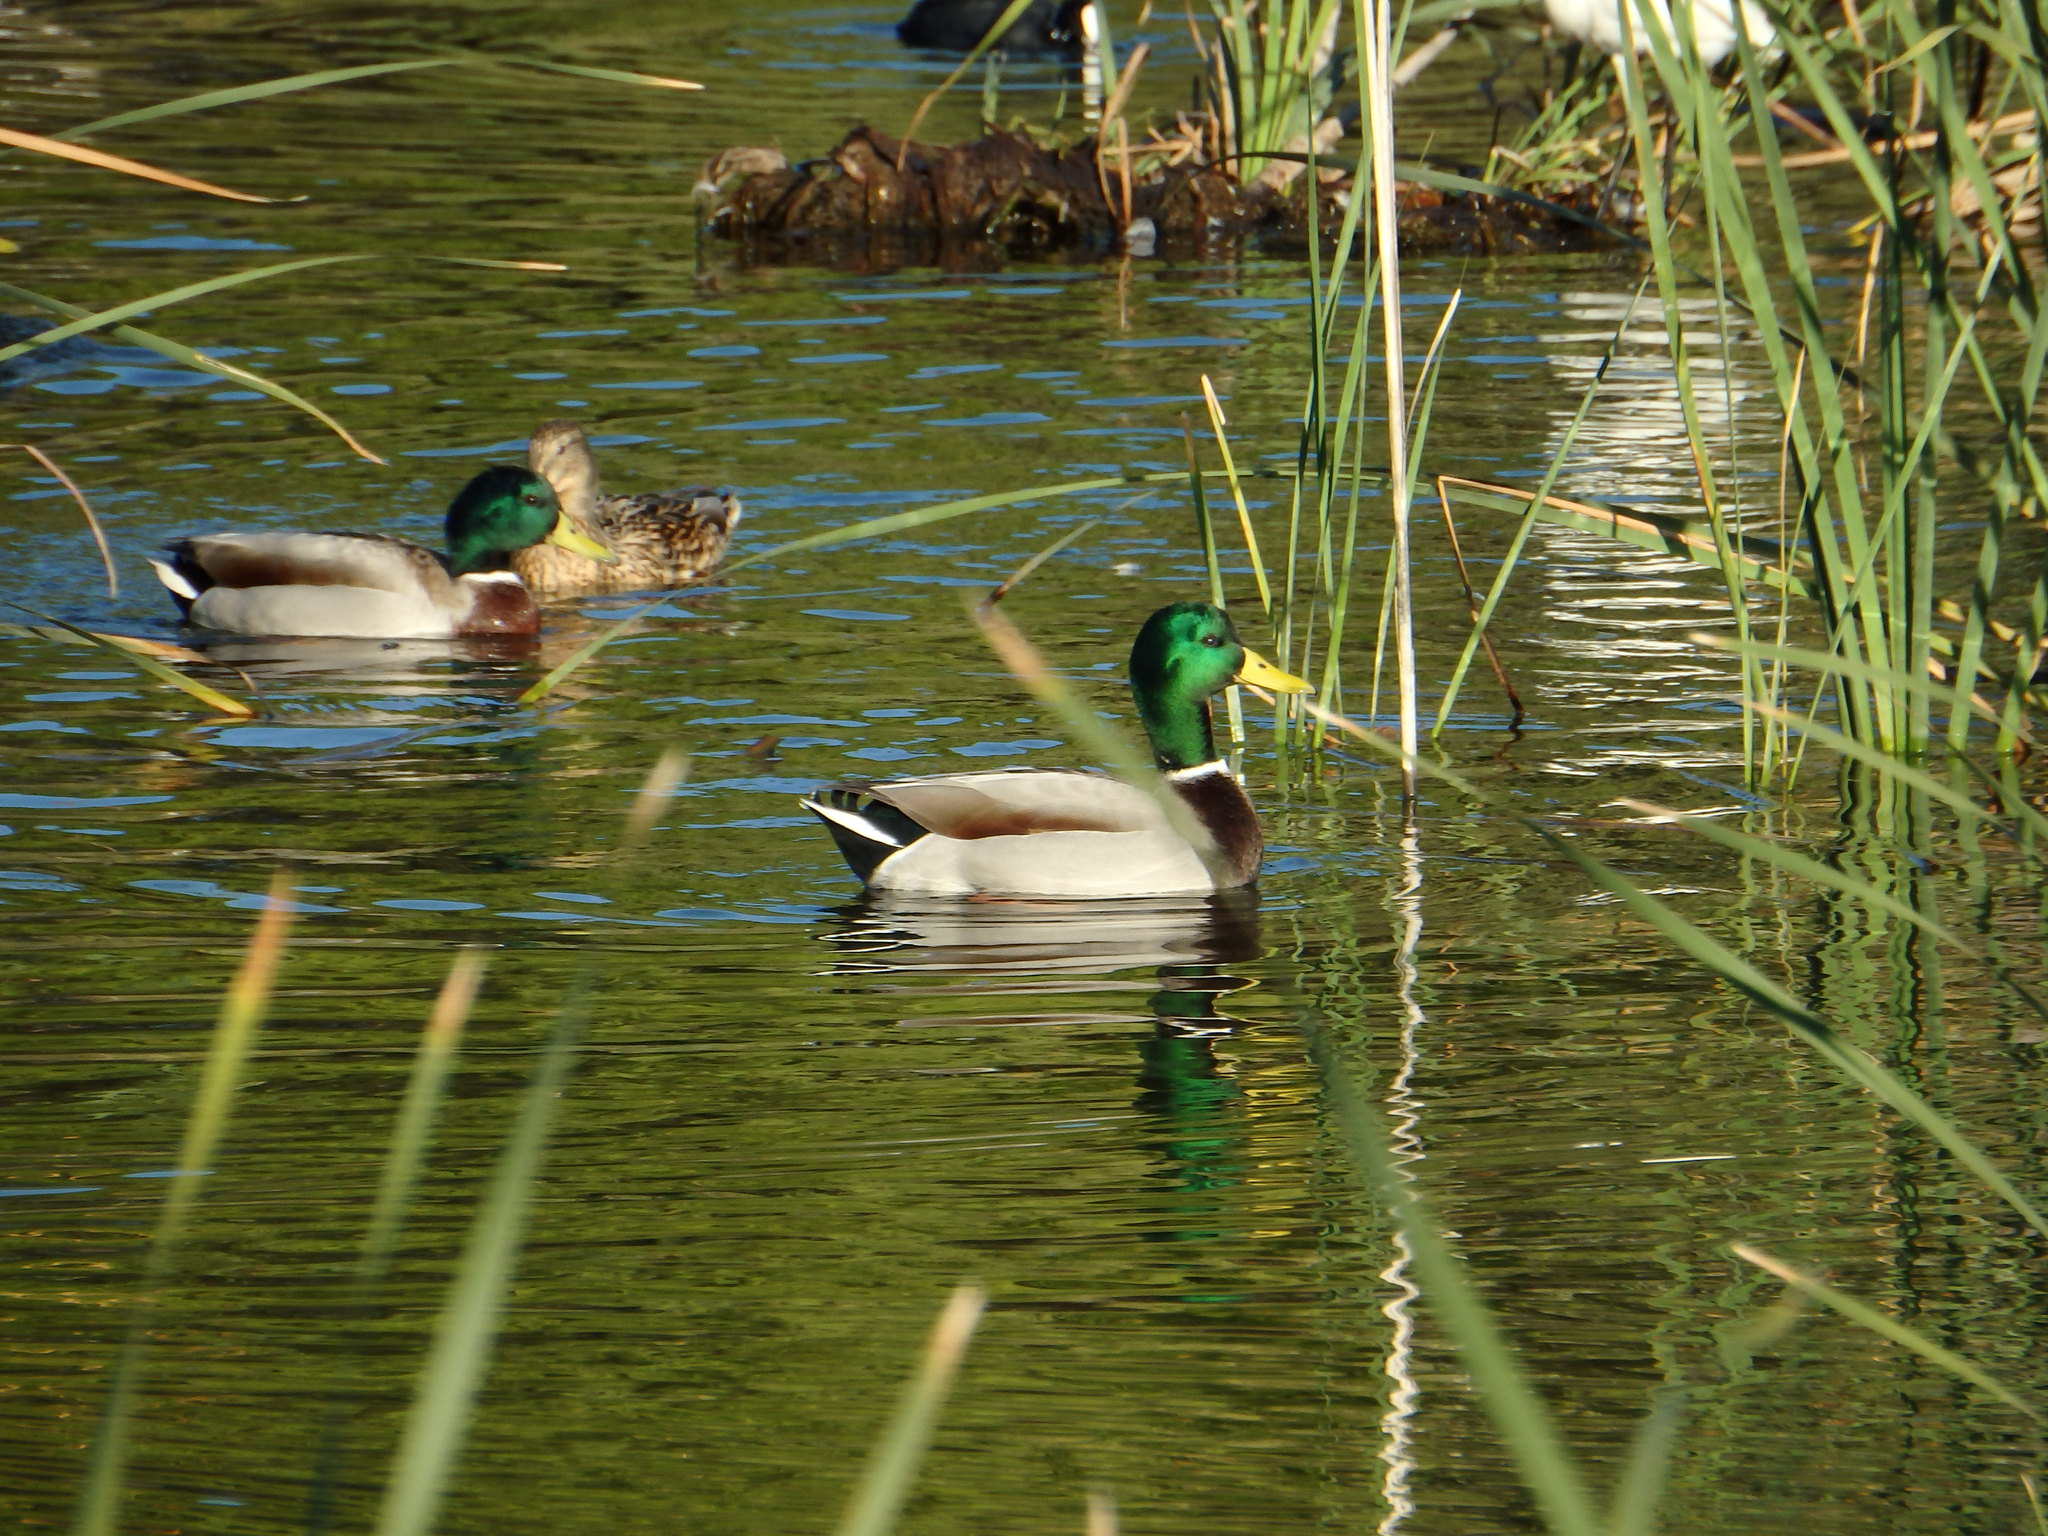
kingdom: Animalia
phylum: Chordata
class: Aves
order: Anseriformes
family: Anatidae
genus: Anas
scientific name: Anas platyrhynchos
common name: Mallard
